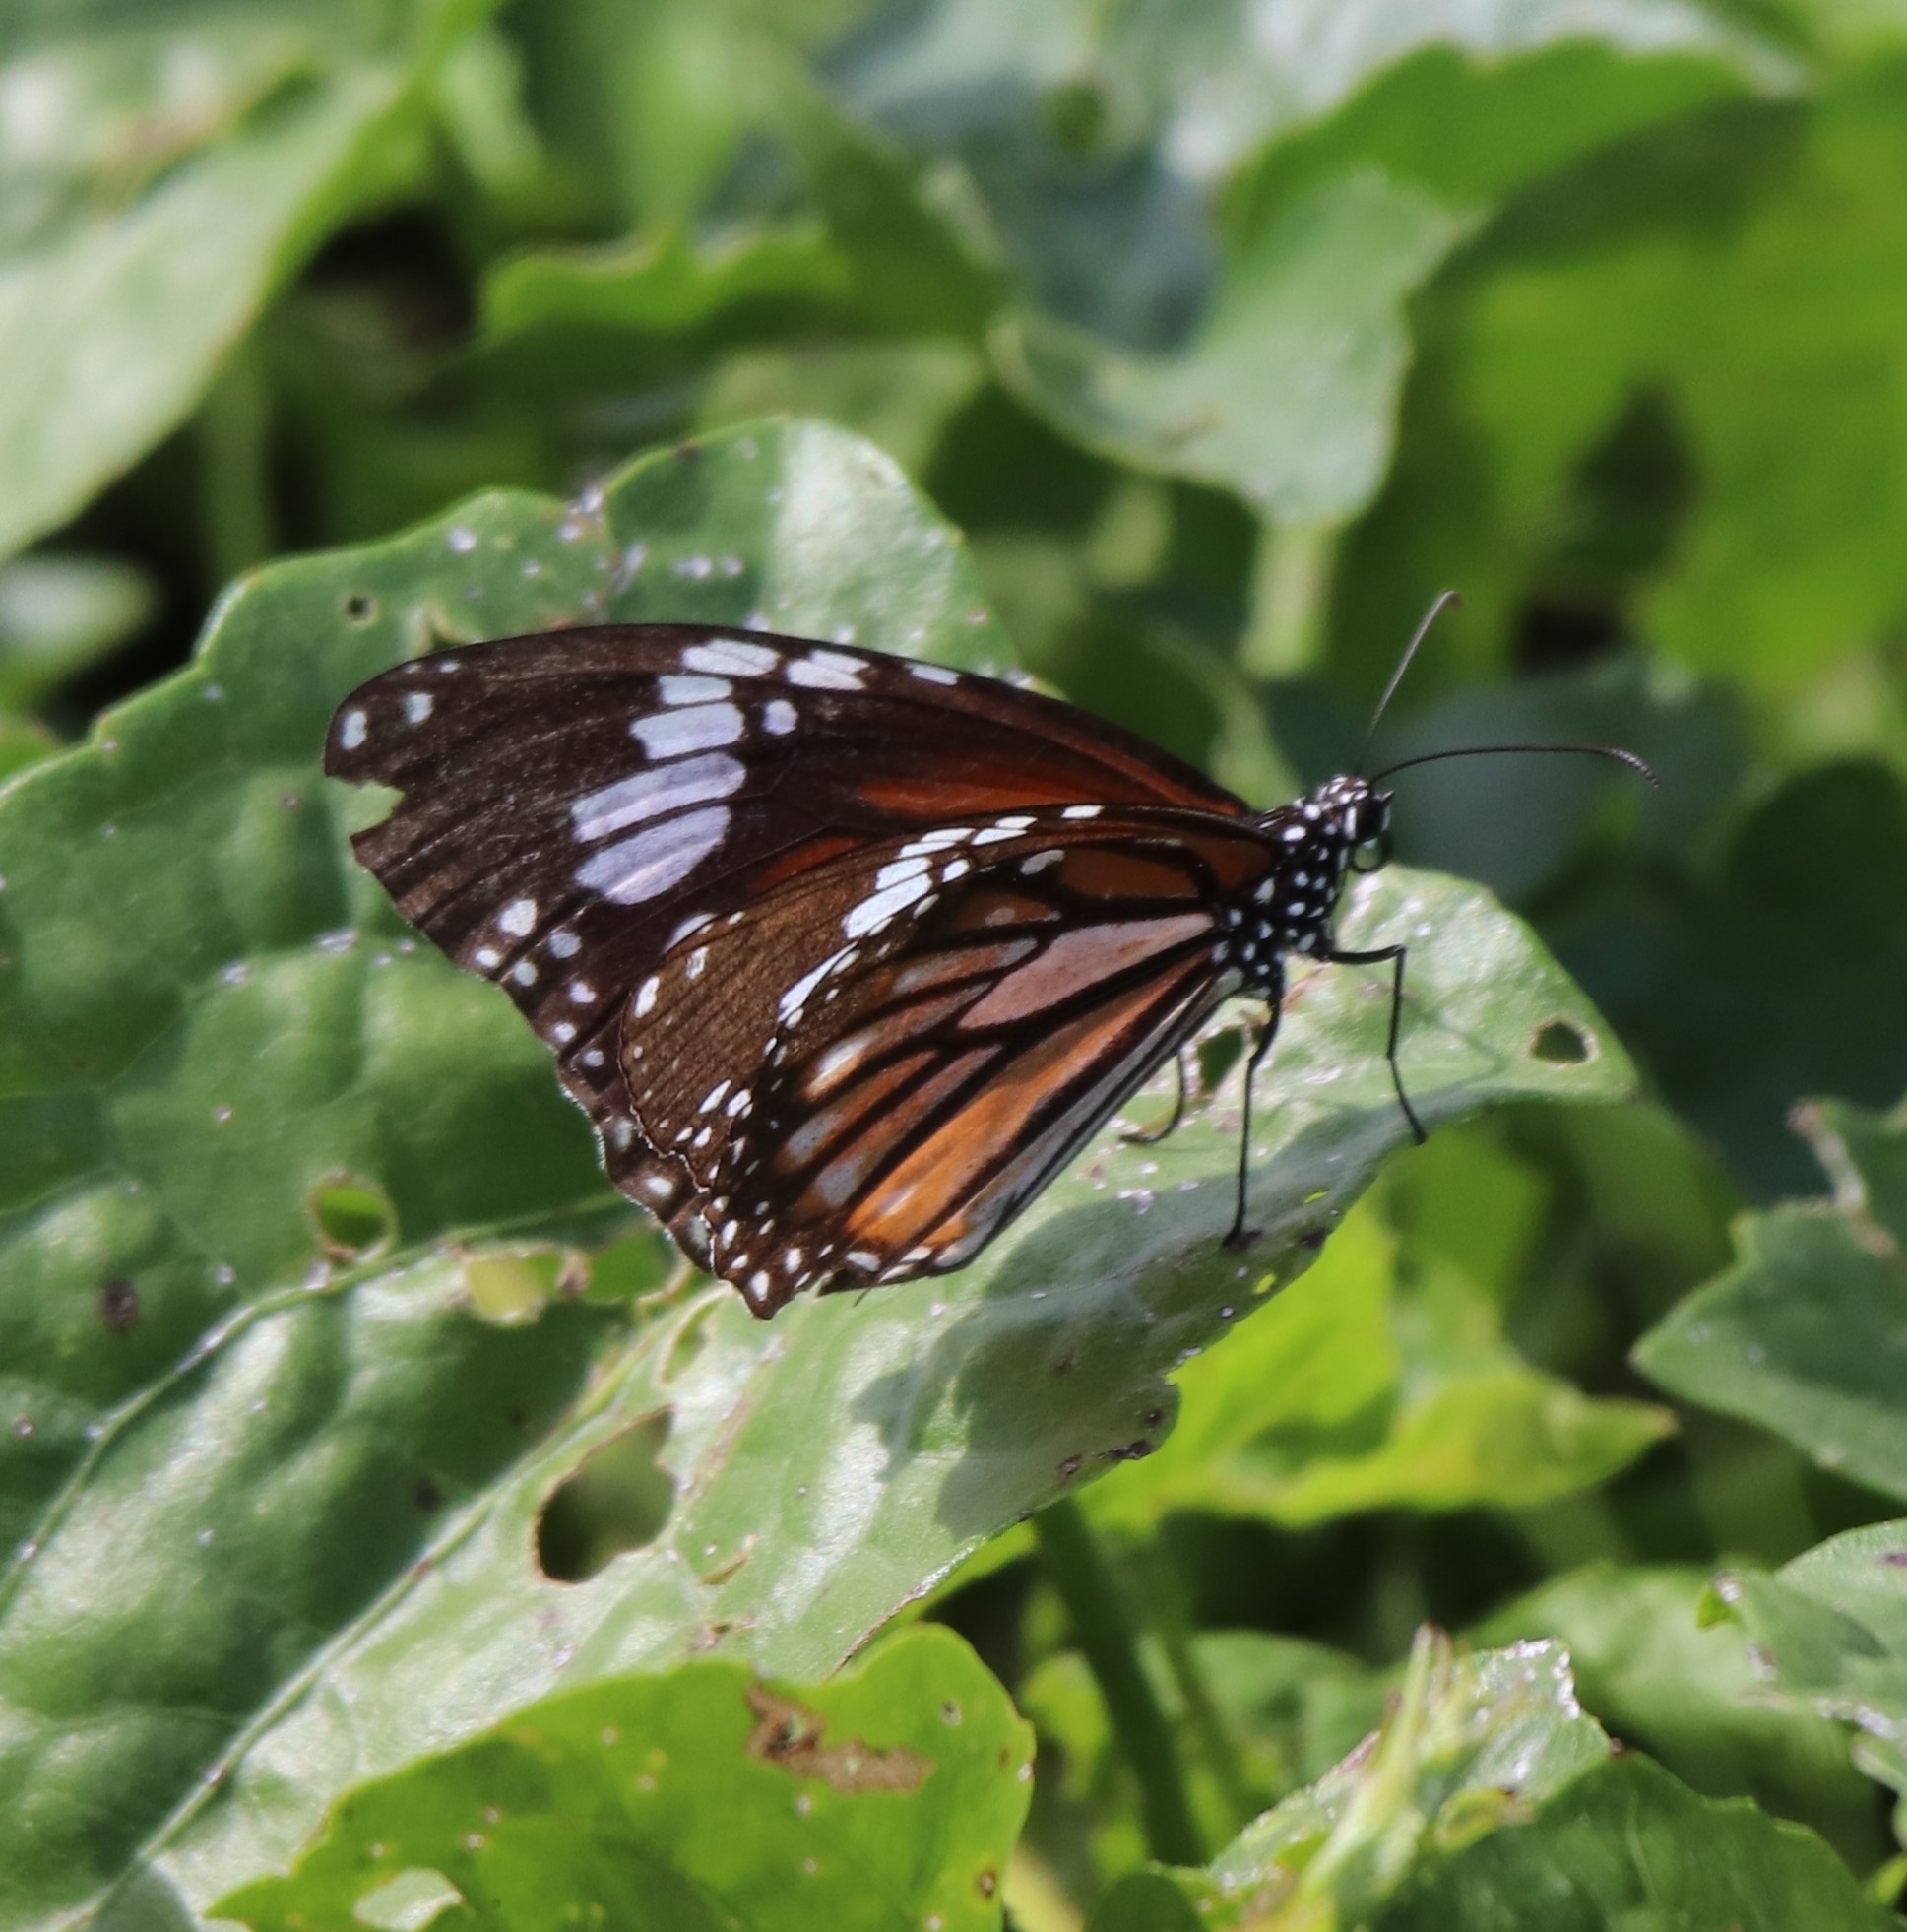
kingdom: Animalia
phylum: Arthropoda
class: Insecta
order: Lepidoptera
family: Nymphalidae
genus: Danaus
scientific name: Danaus genutia
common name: Common tiger butterfly
